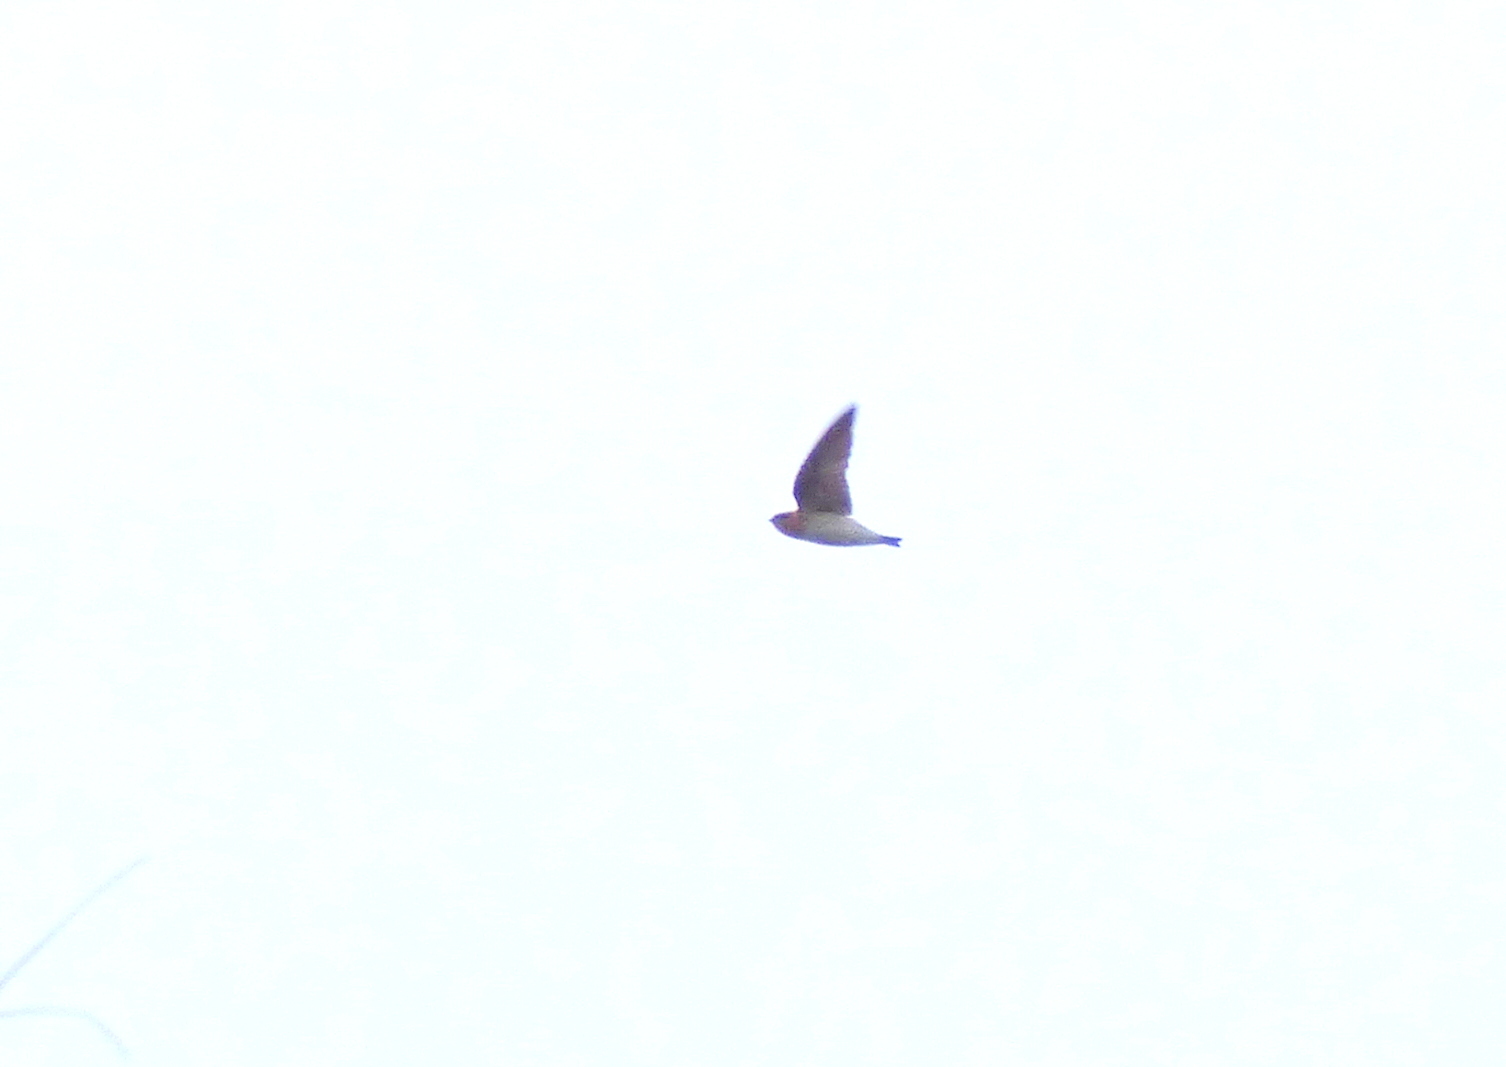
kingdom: Animalia
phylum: Chordata
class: Aves
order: Passeriformes
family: Hirundinidae
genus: Alopochelidon
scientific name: Alopochelidon fucata
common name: Tawny-headed swallow
